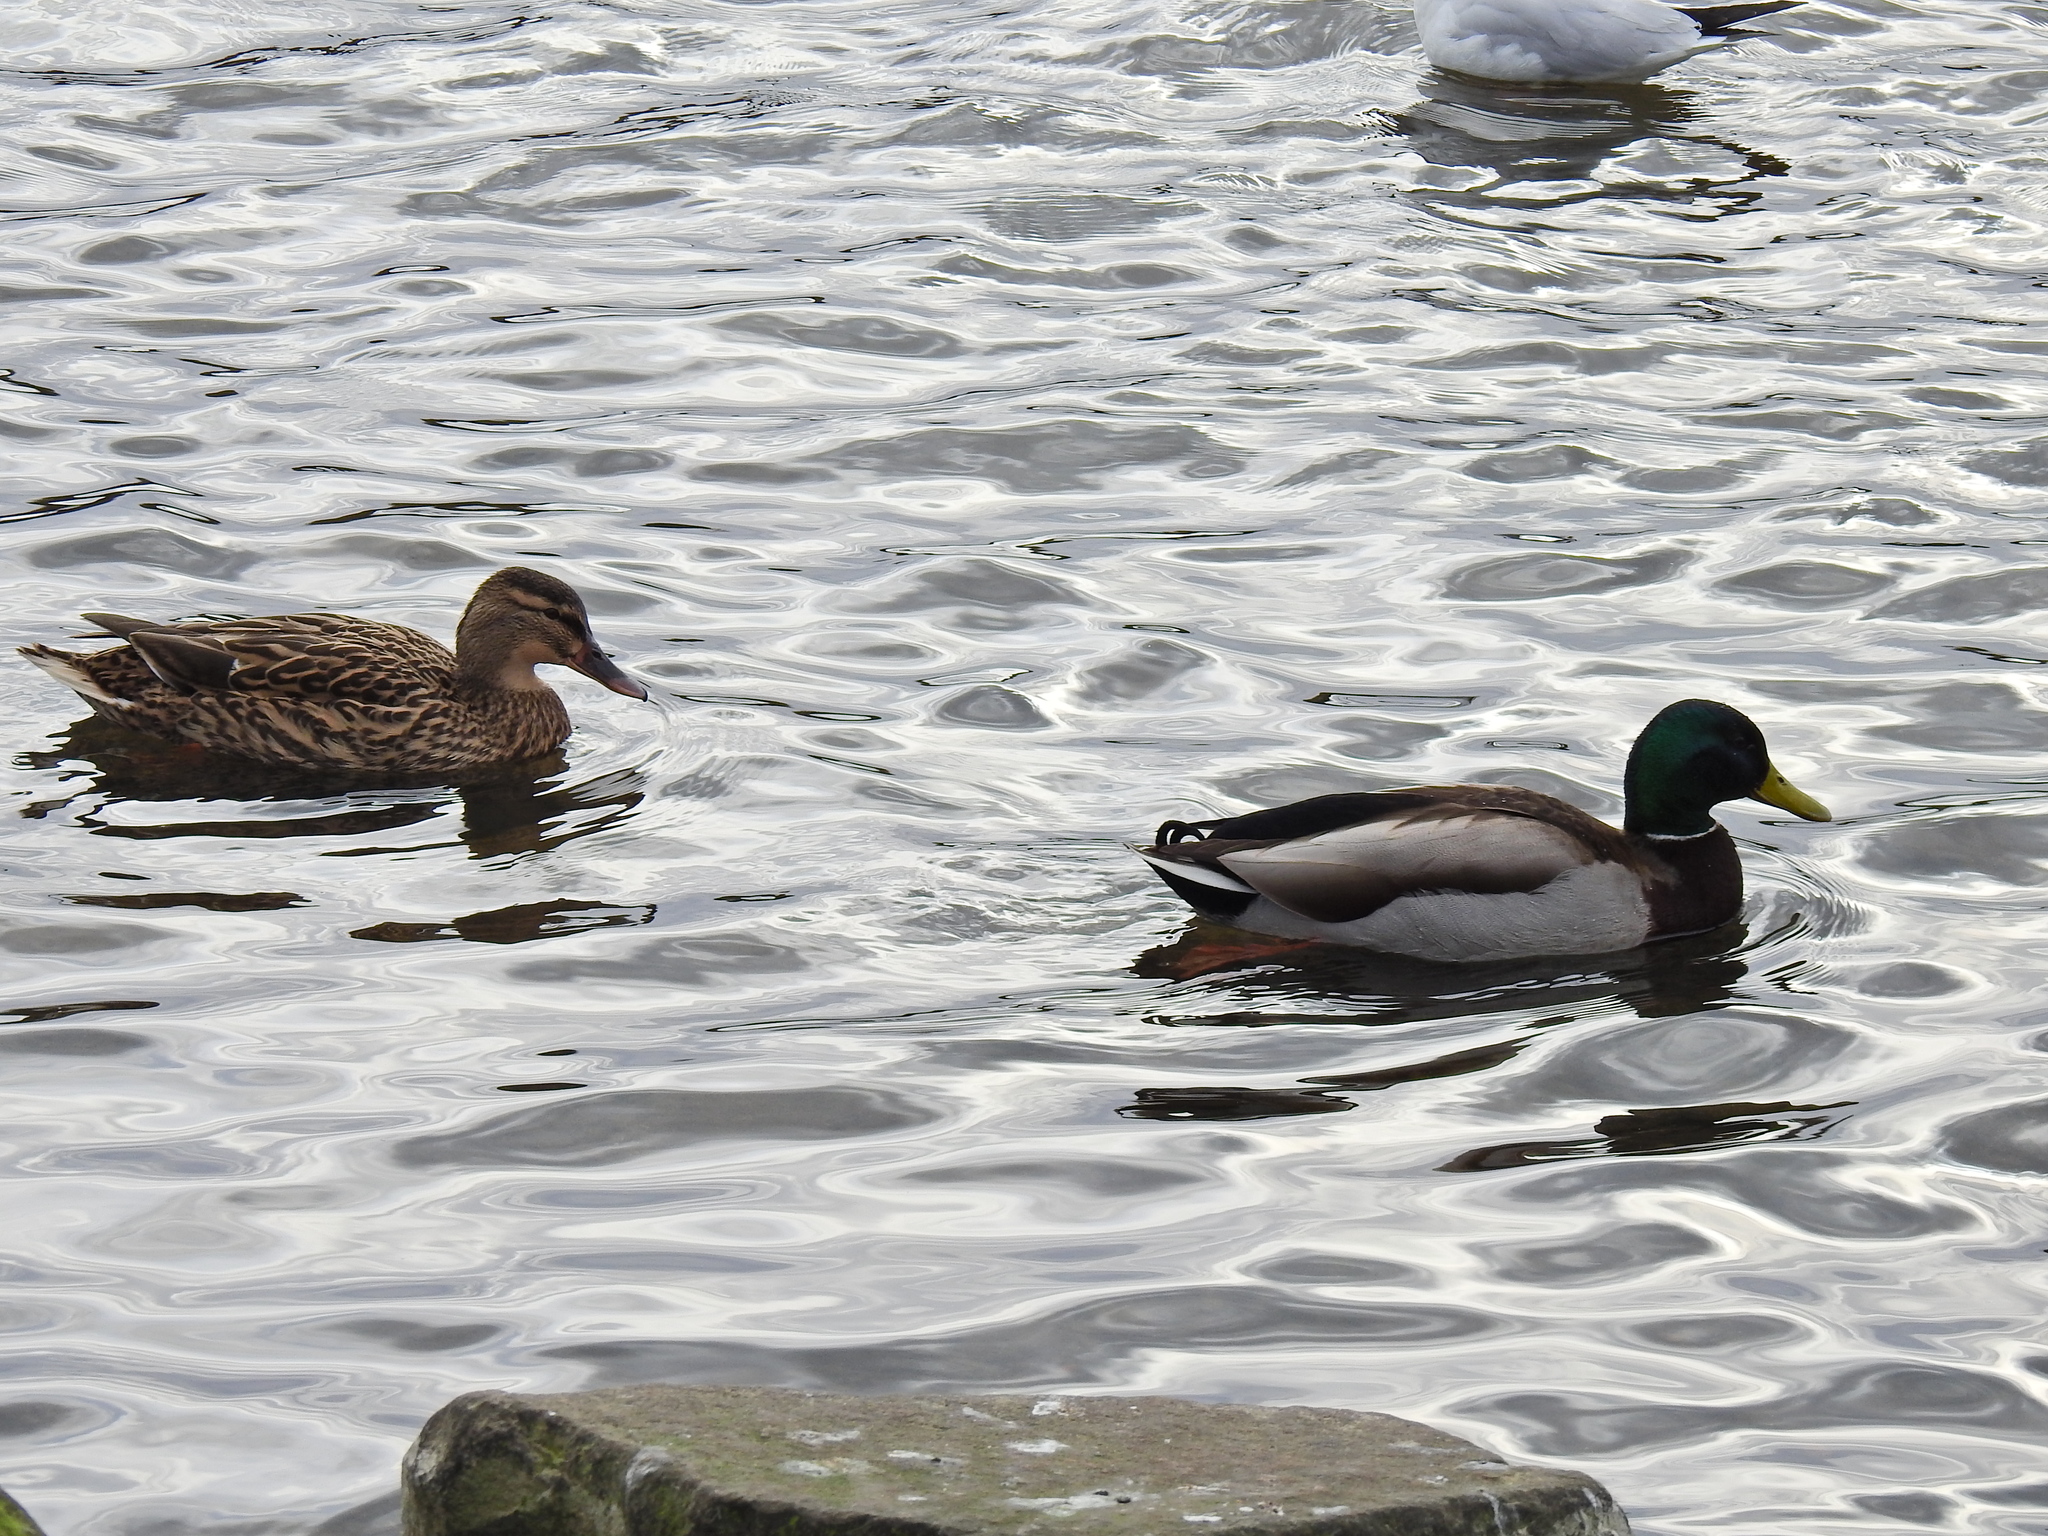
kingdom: Animalia
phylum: Chordata
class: Aves
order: Anseriformes
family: Anatidae
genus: Anas
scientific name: Anas platyrhynchos
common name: Mallard
